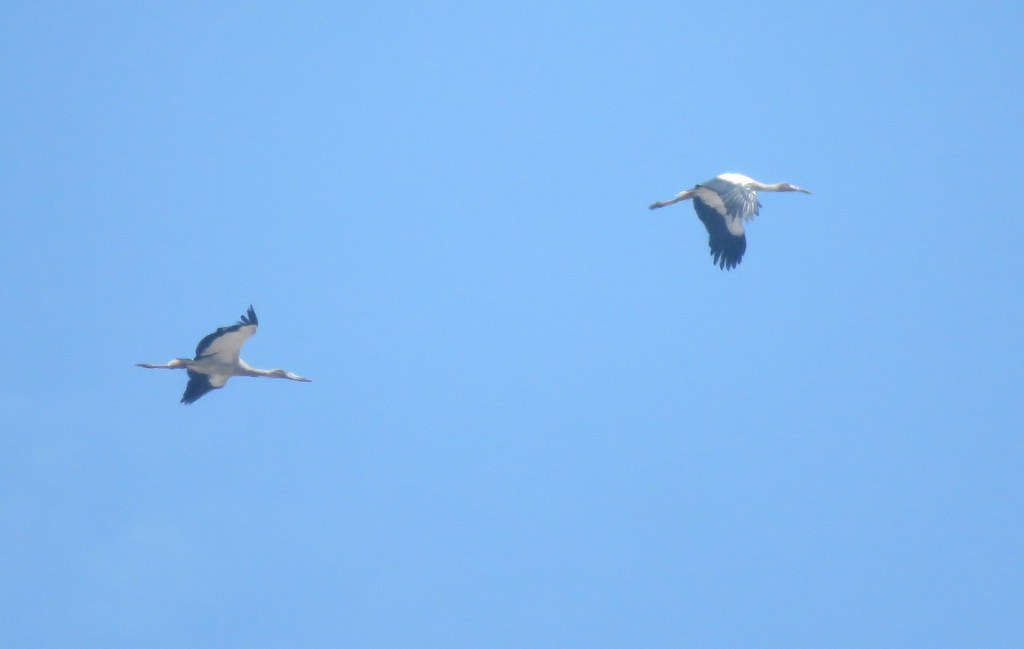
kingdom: Animalia
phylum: Chordata
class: Aves
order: Ciconiiformes
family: Ciconiidae
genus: Ciconia
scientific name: Ciconia maguari
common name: Maguari stork
